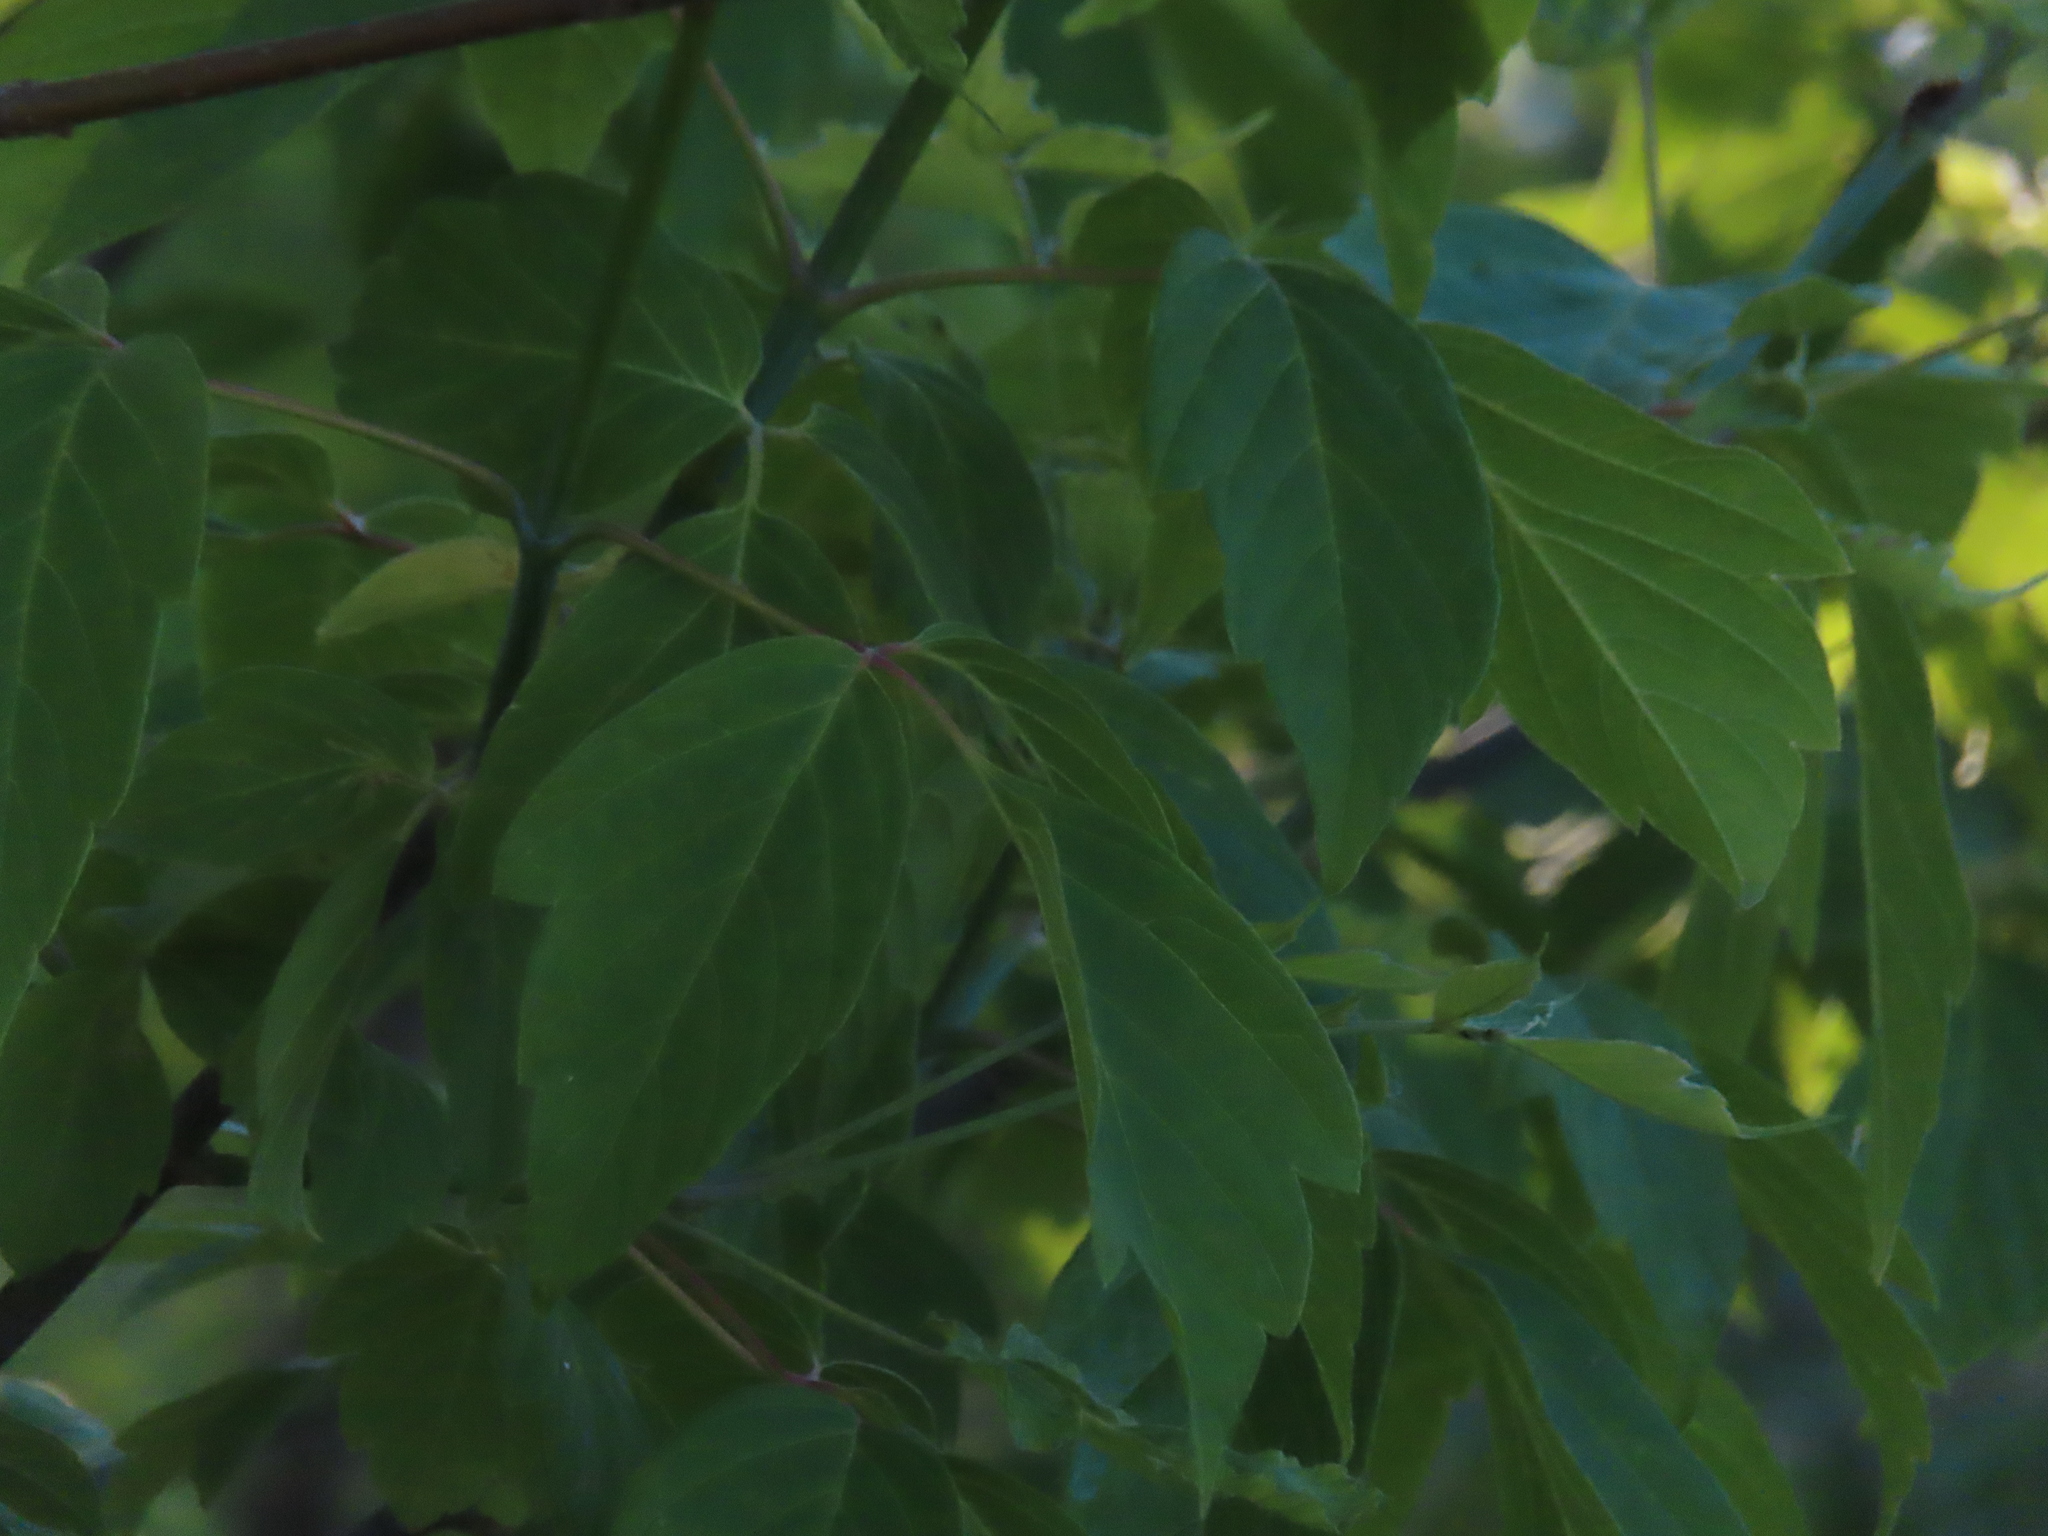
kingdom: Plantae
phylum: Tracheophyta
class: Magnoliopsida
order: Sapindales
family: Sapindaceae
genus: Acer
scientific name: Acer negundo
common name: Ashleaf maple
